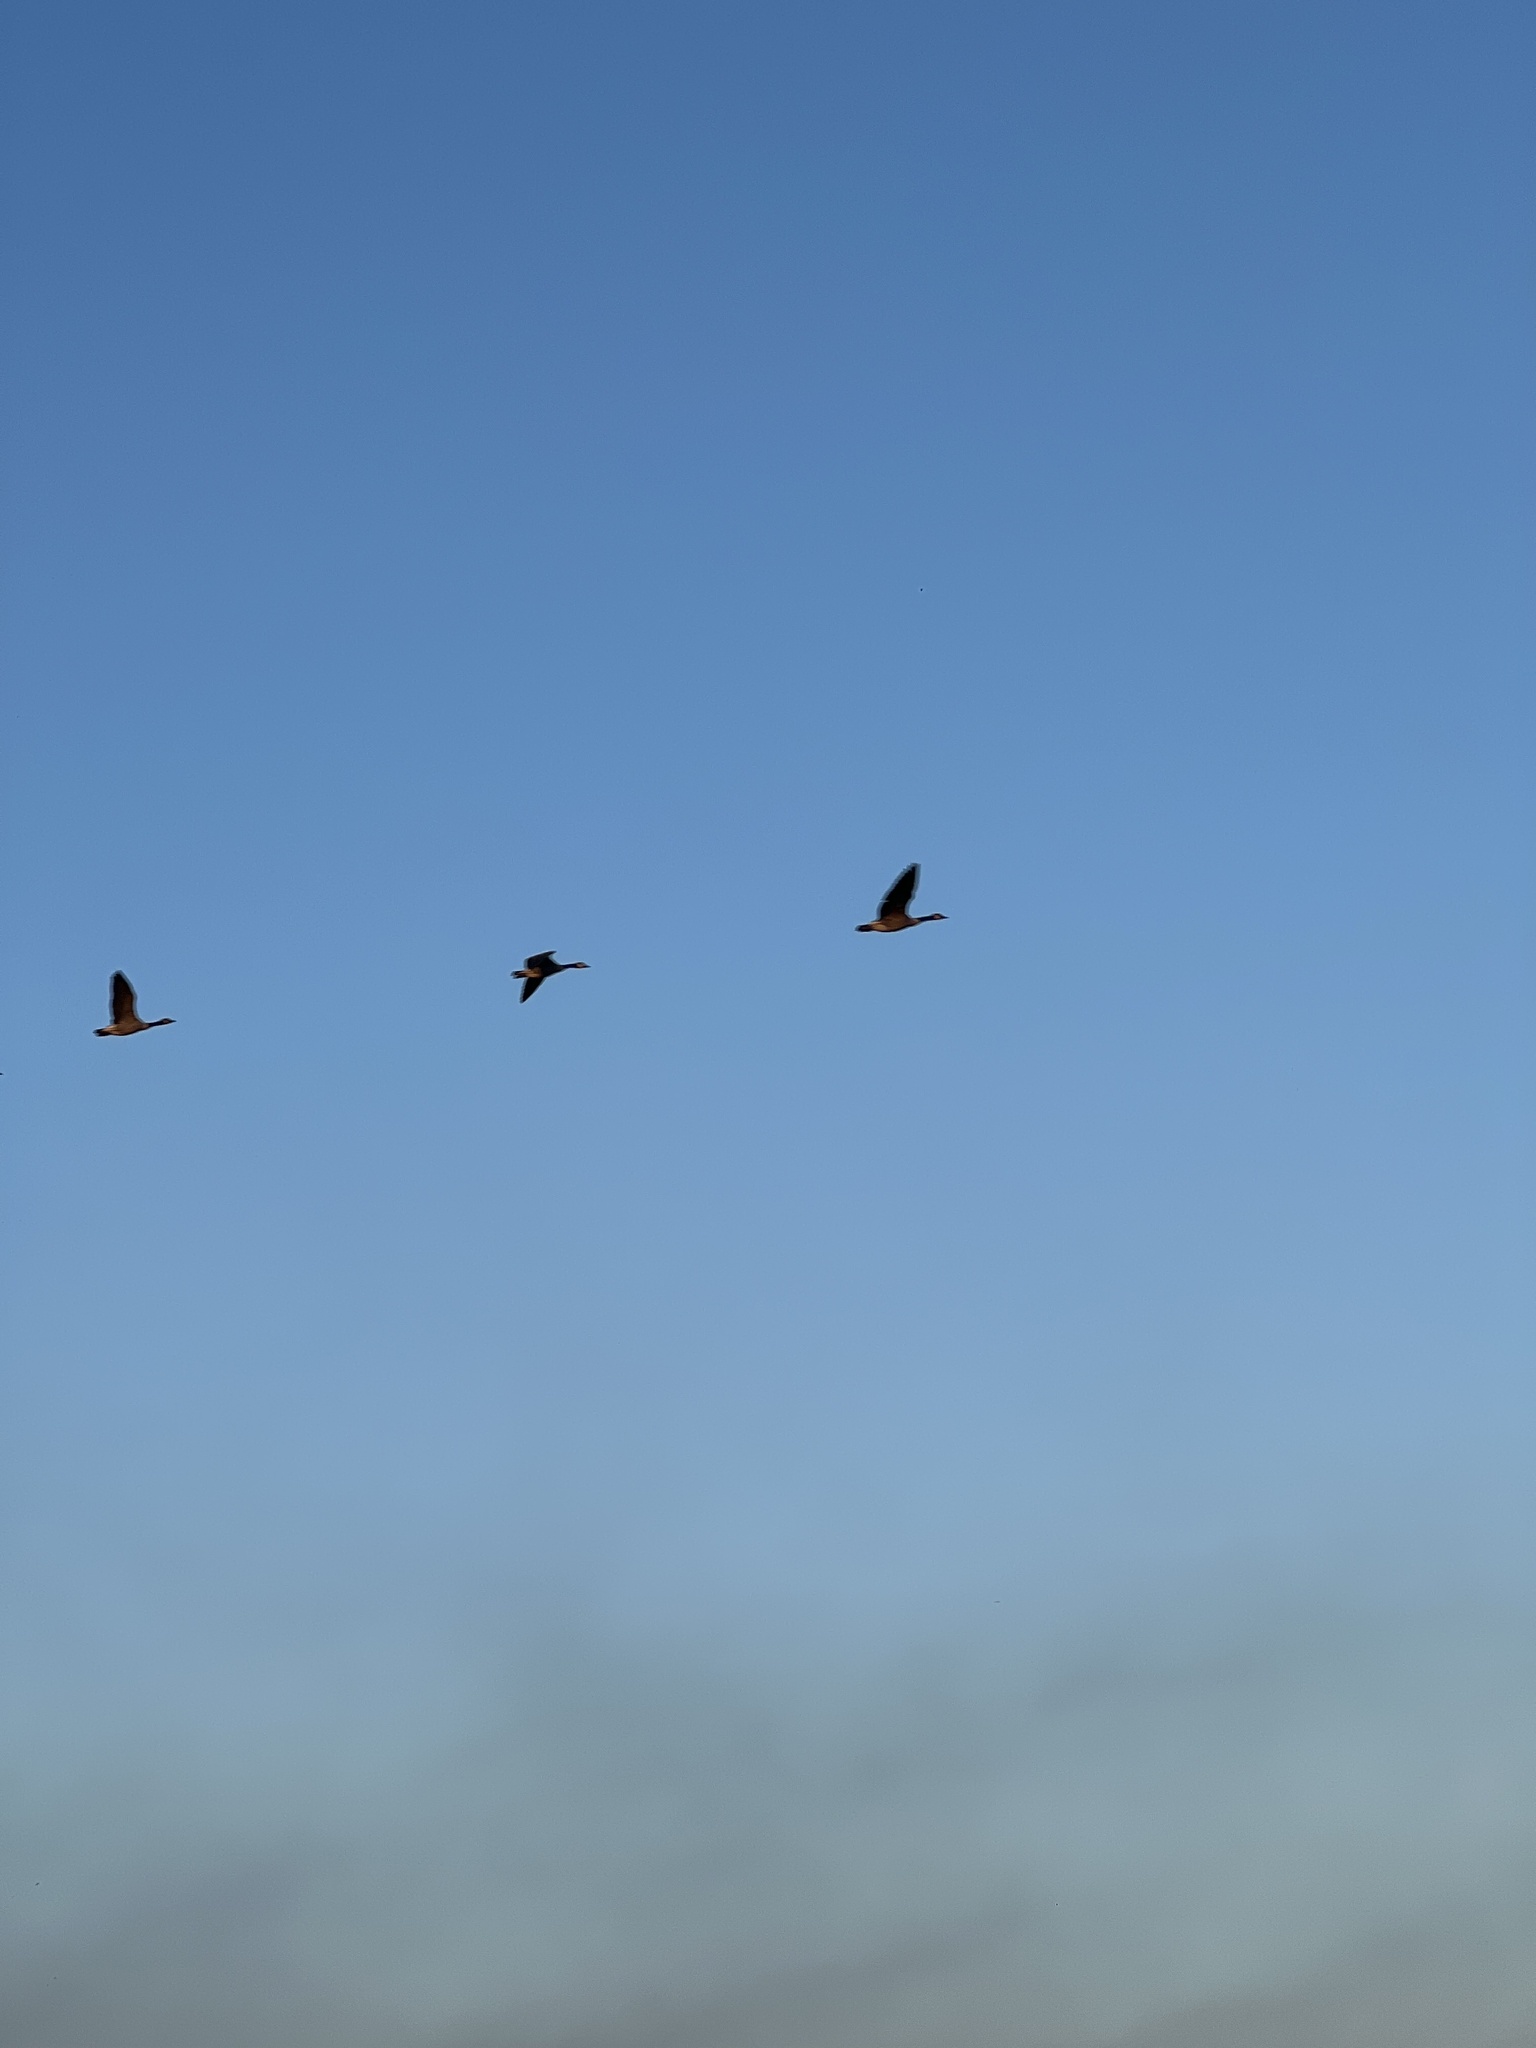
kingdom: Animalia
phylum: Chordata
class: Aves
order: Anseriformes
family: Anatidae
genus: Branta
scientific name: Branta canadensis
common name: Canada goose
